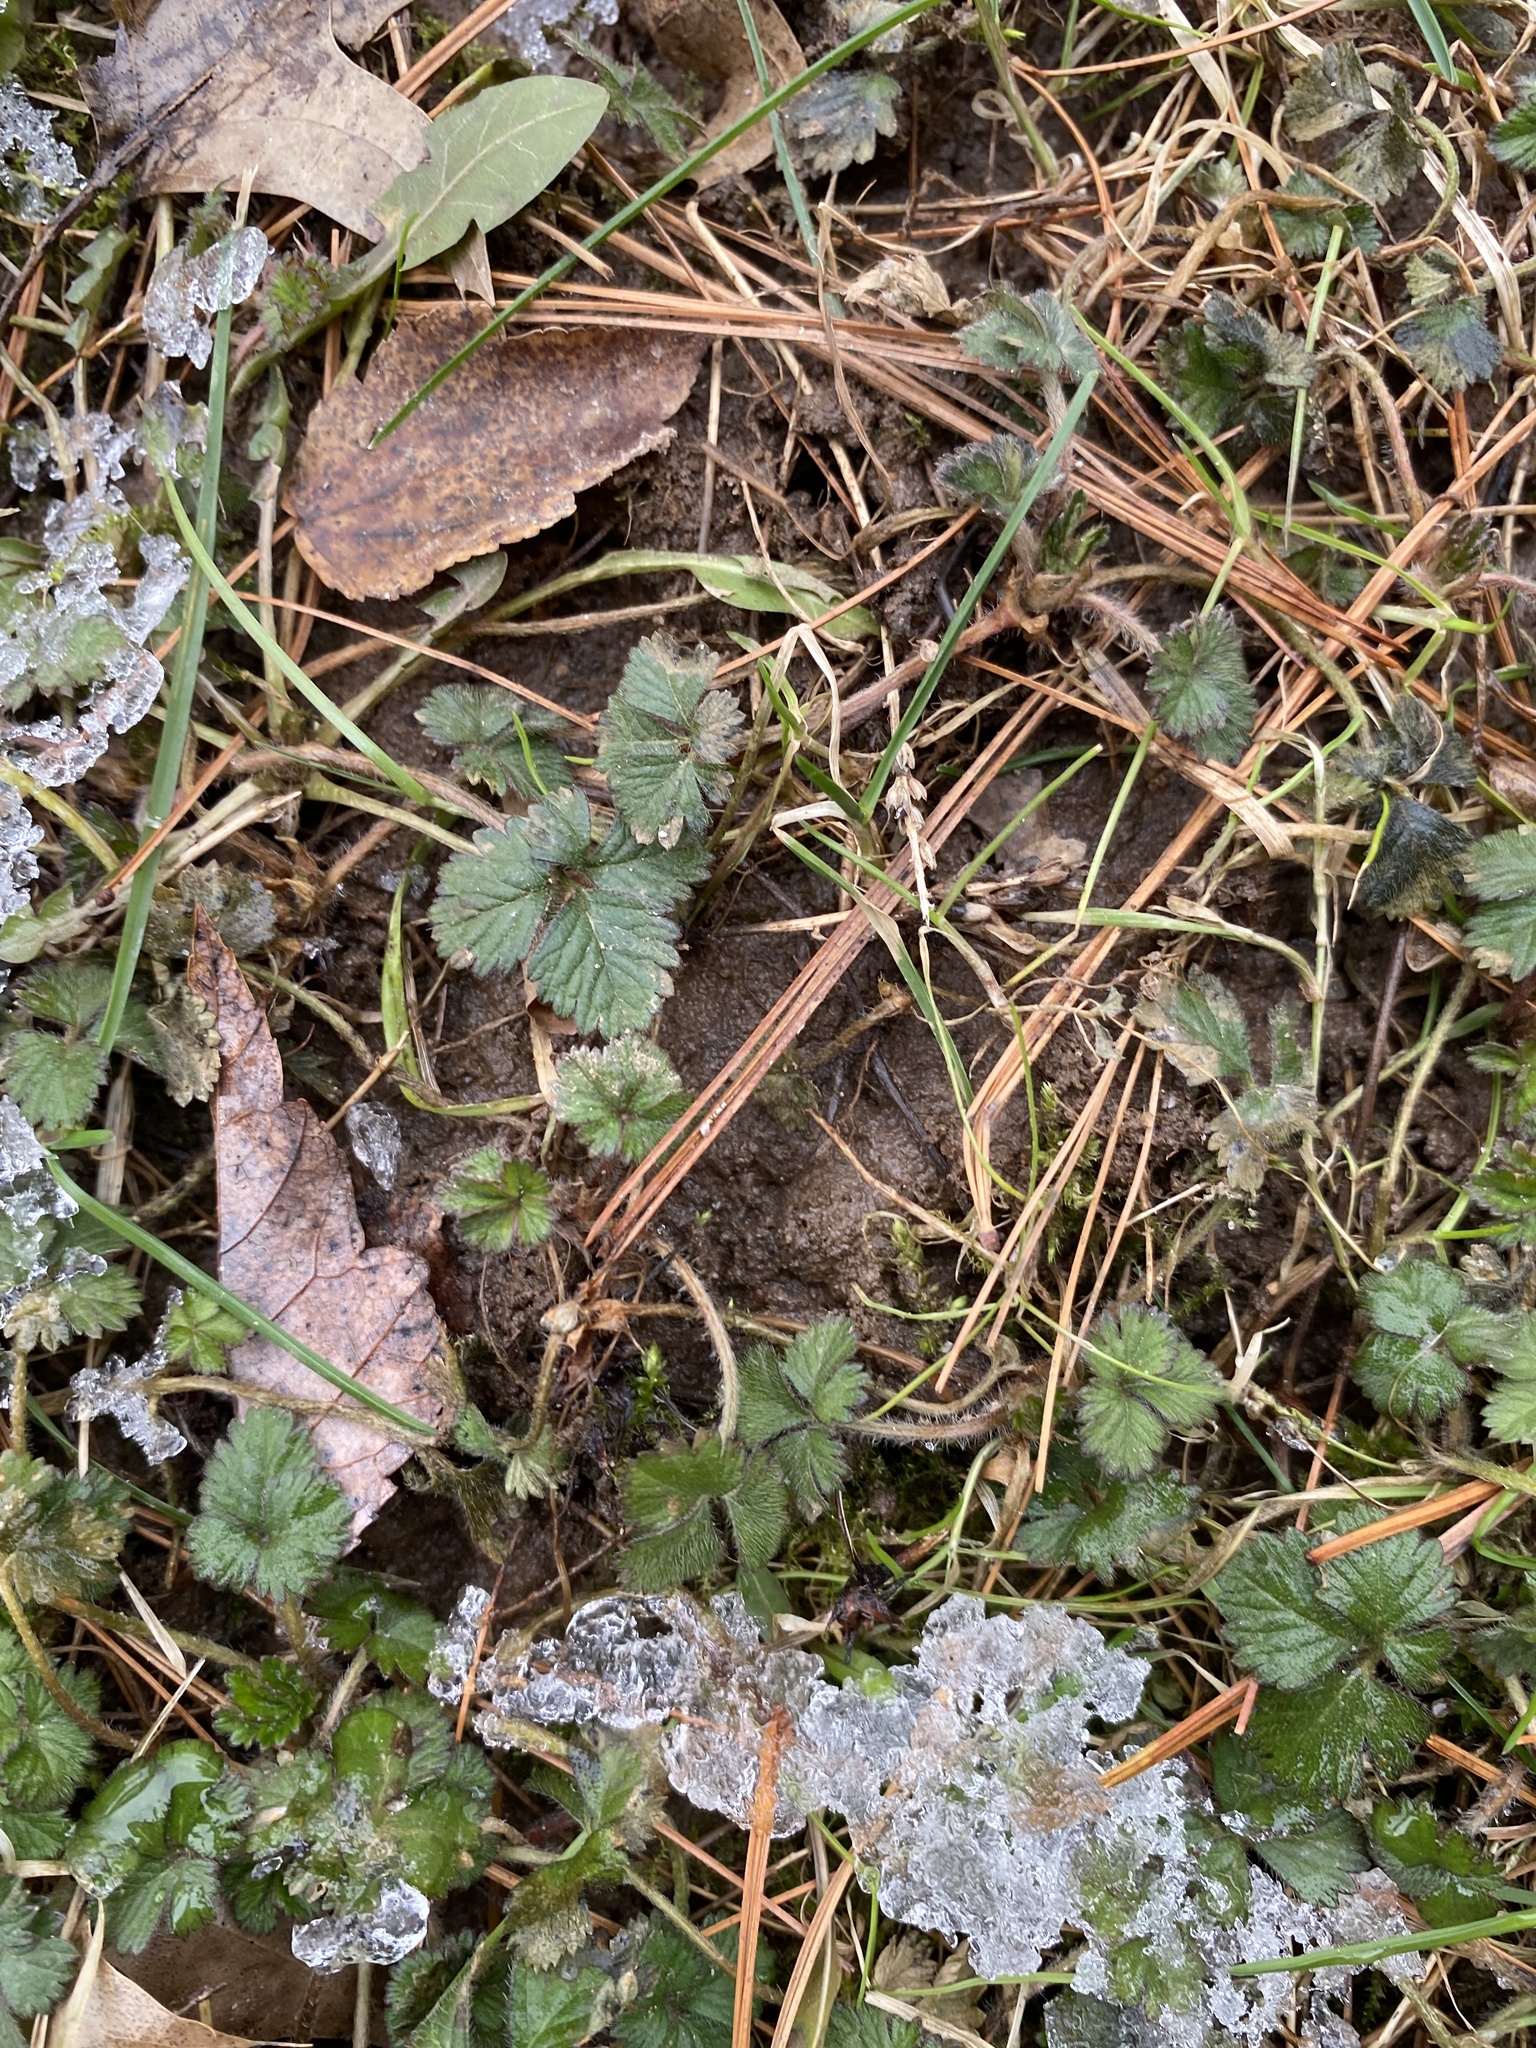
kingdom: Plantae
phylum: Tracheophyta
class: Magnoliopsida
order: Rosales
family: Rosaceae
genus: Potentilla
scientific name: Potentilla indica
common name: Yellow-flowered strawberry
